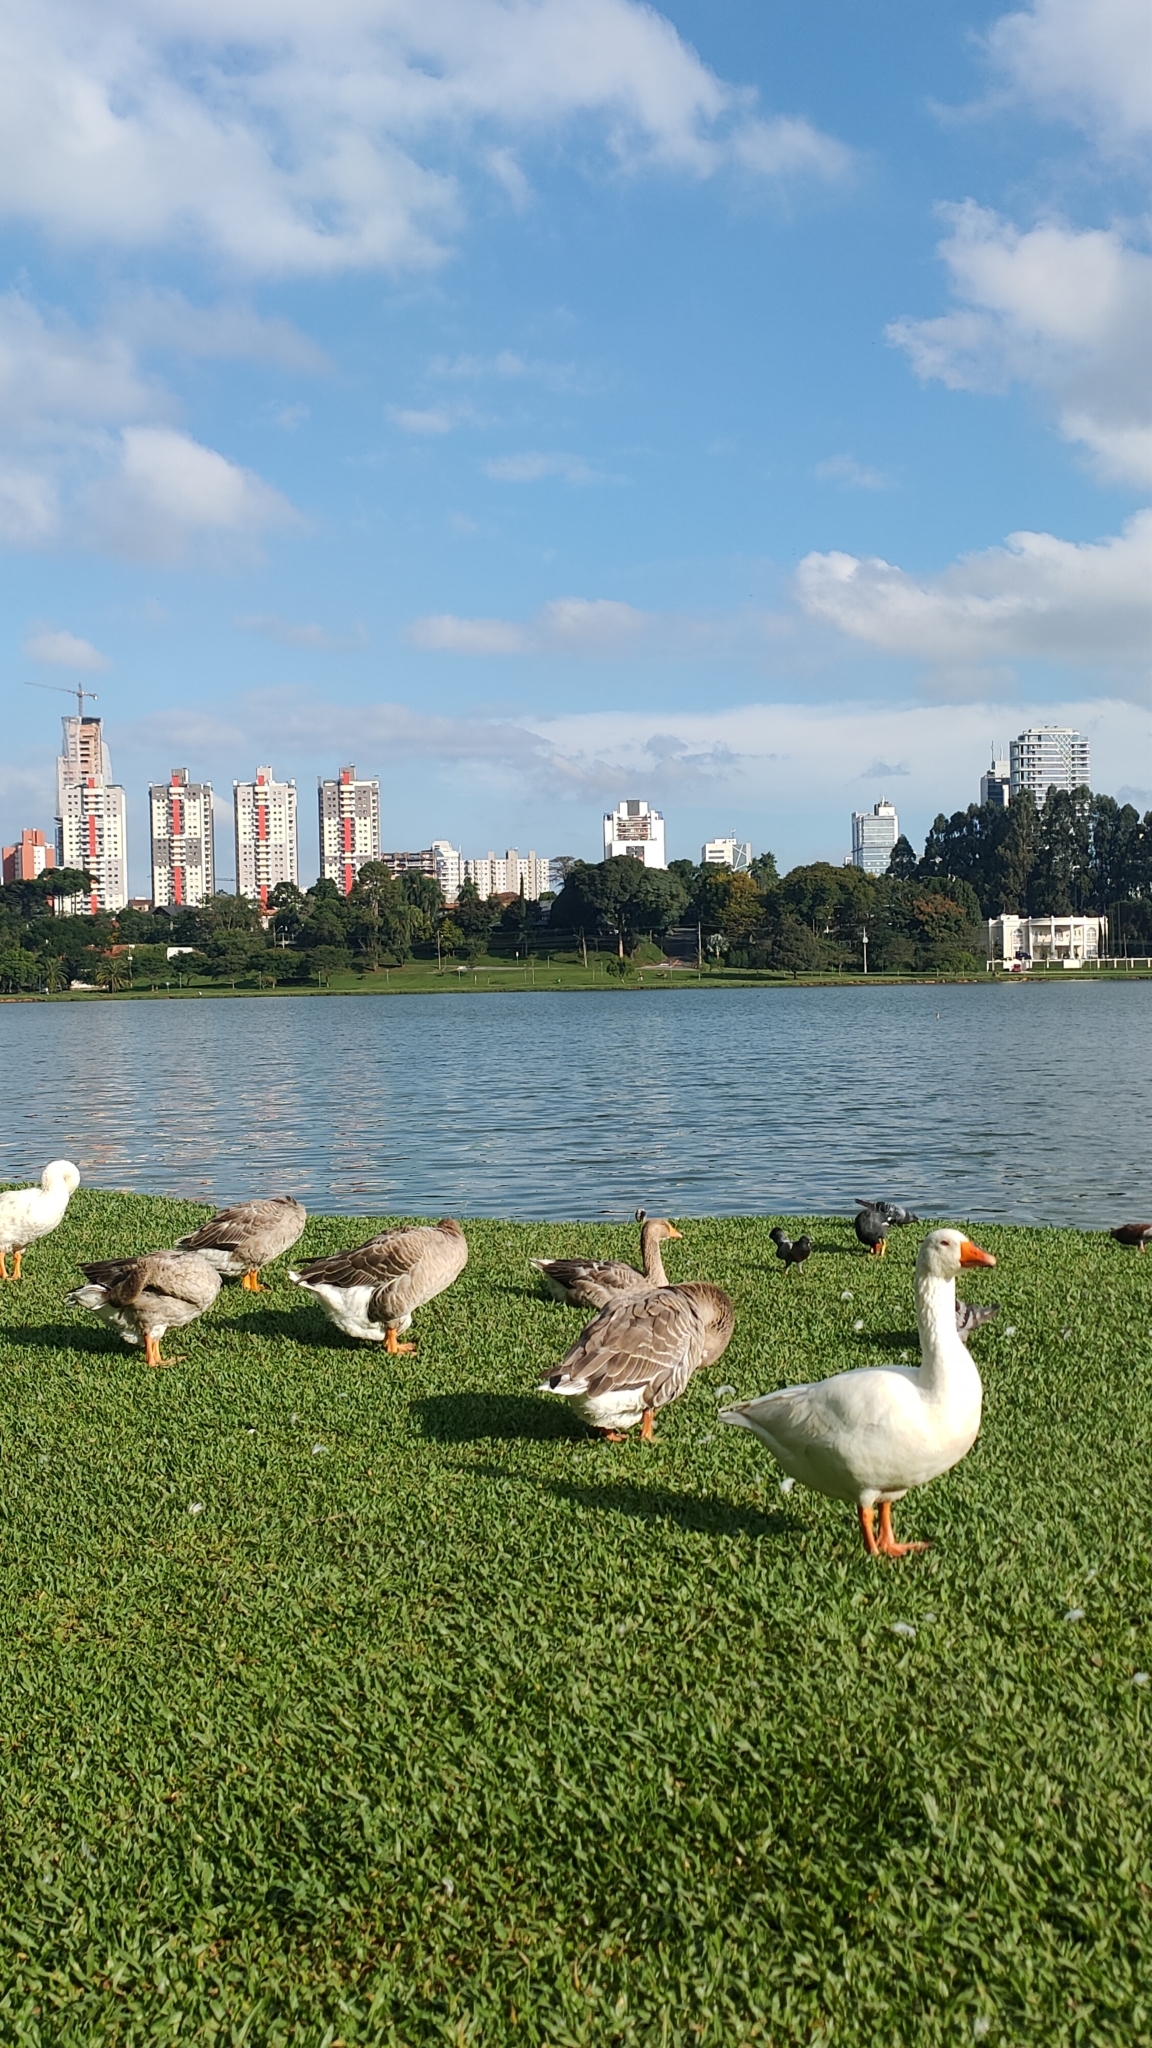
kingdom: Animalia
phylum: Chordata
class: Aves
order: Anseriformes
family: Anatidae
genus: Anser
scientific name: Anser anser
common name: Greylag goose
